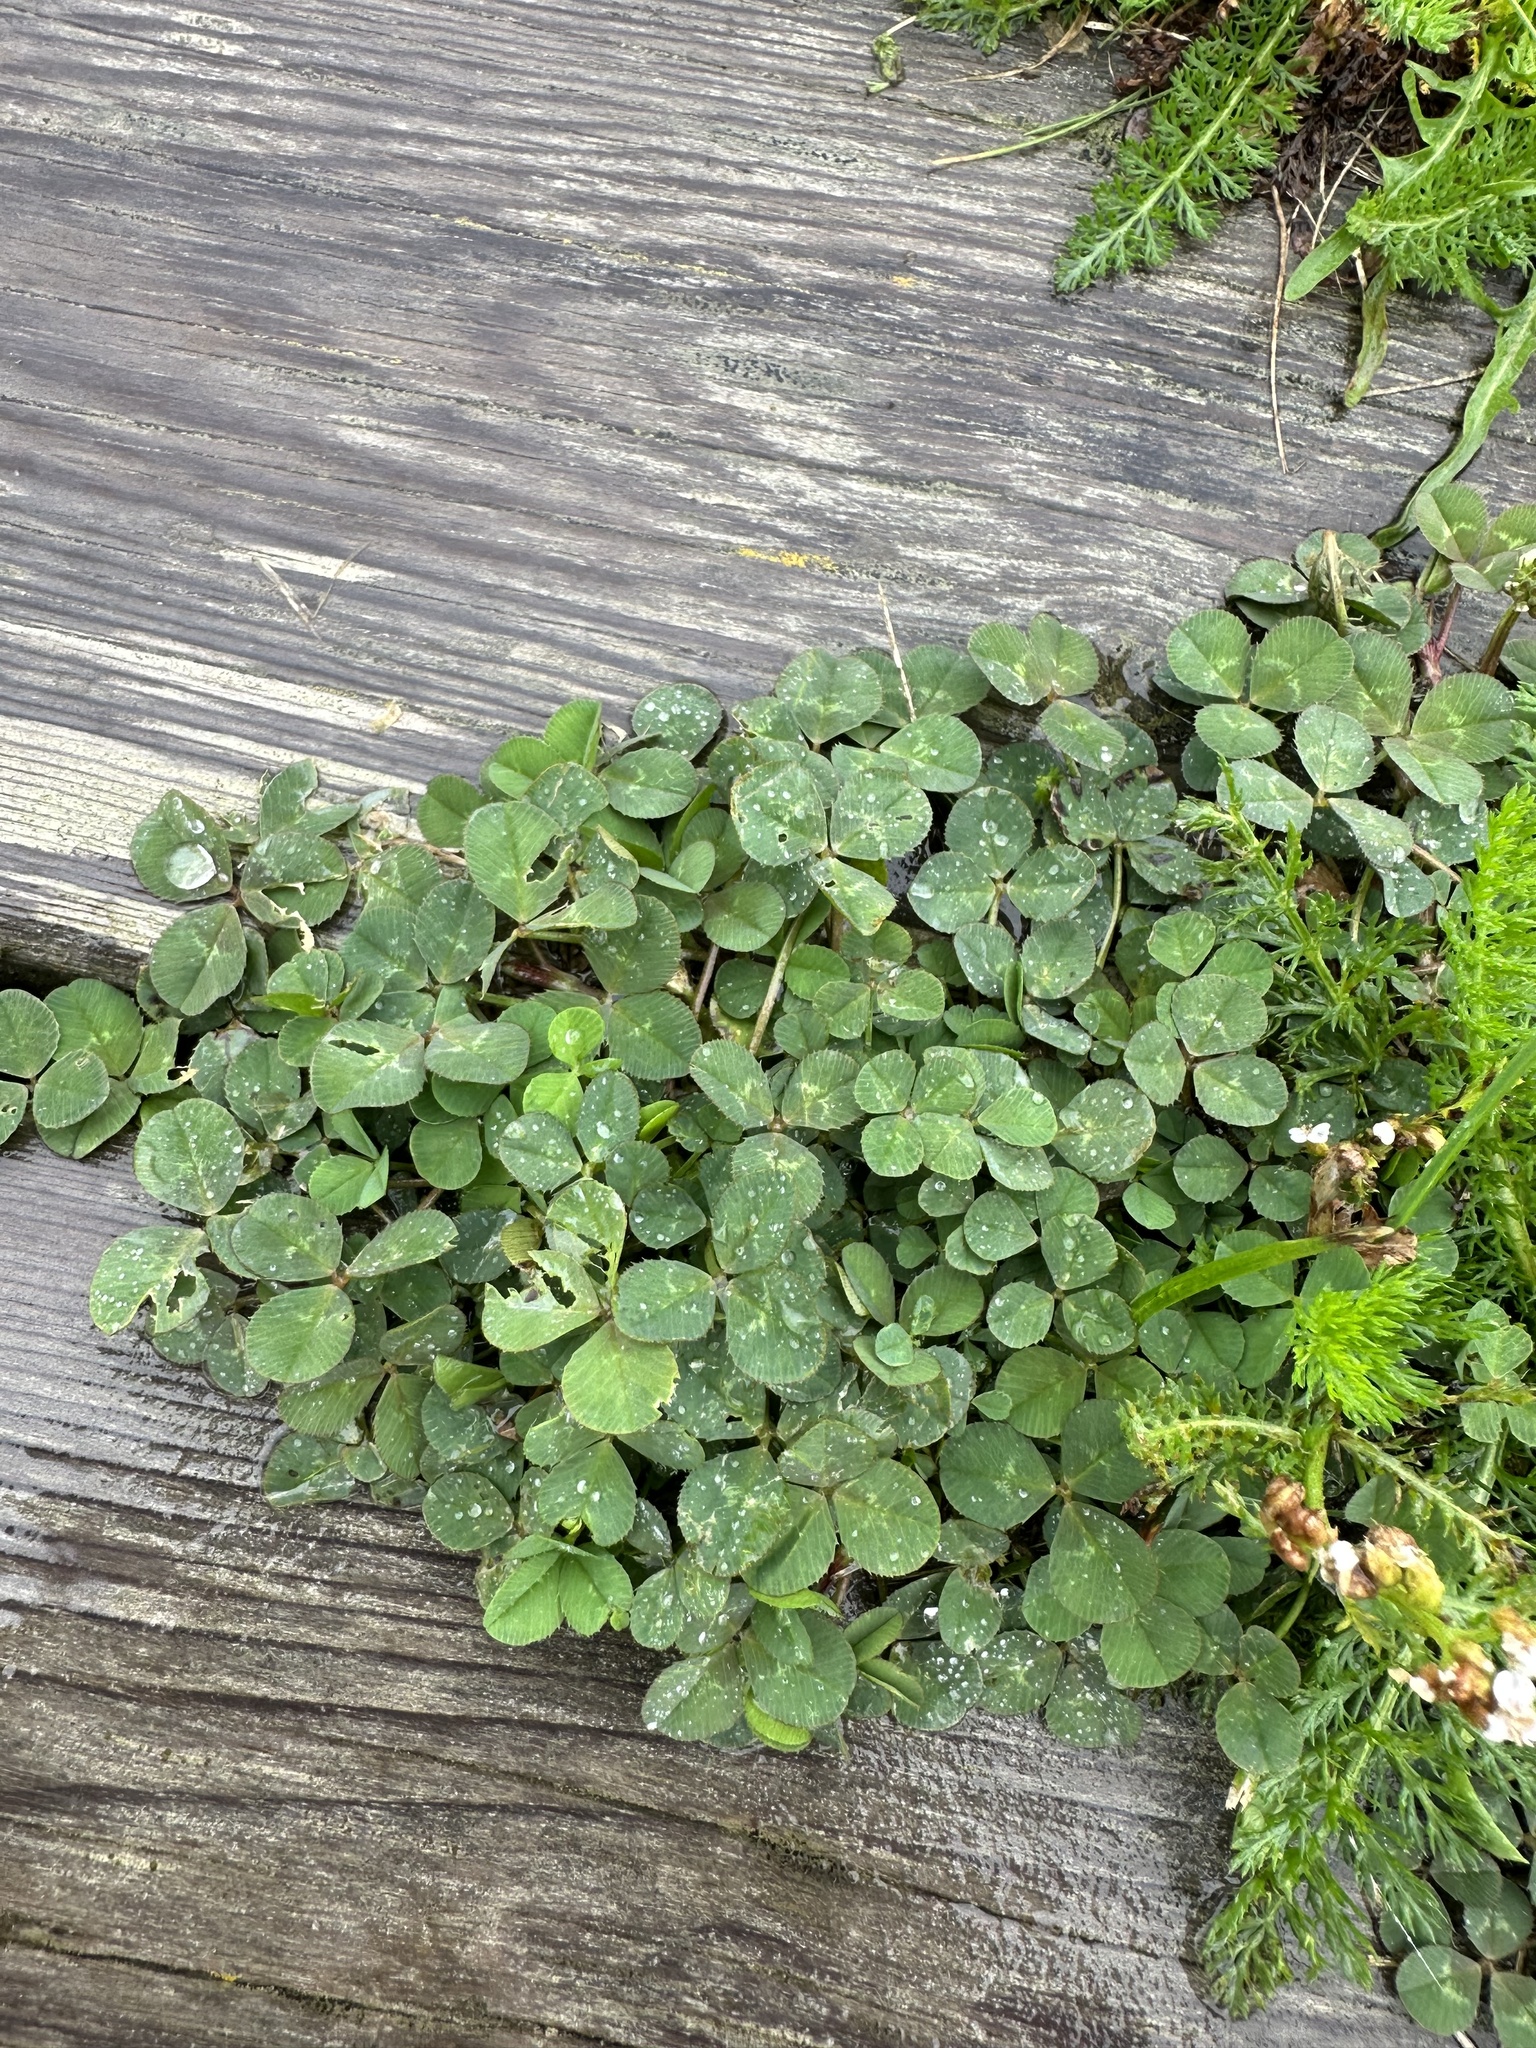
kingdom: Plantae
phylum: Tracheophyta
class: Magnoliopsida
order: Fabales
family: Fabaceae
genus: Trifolium
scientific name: Trifolium repens
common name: White clover
